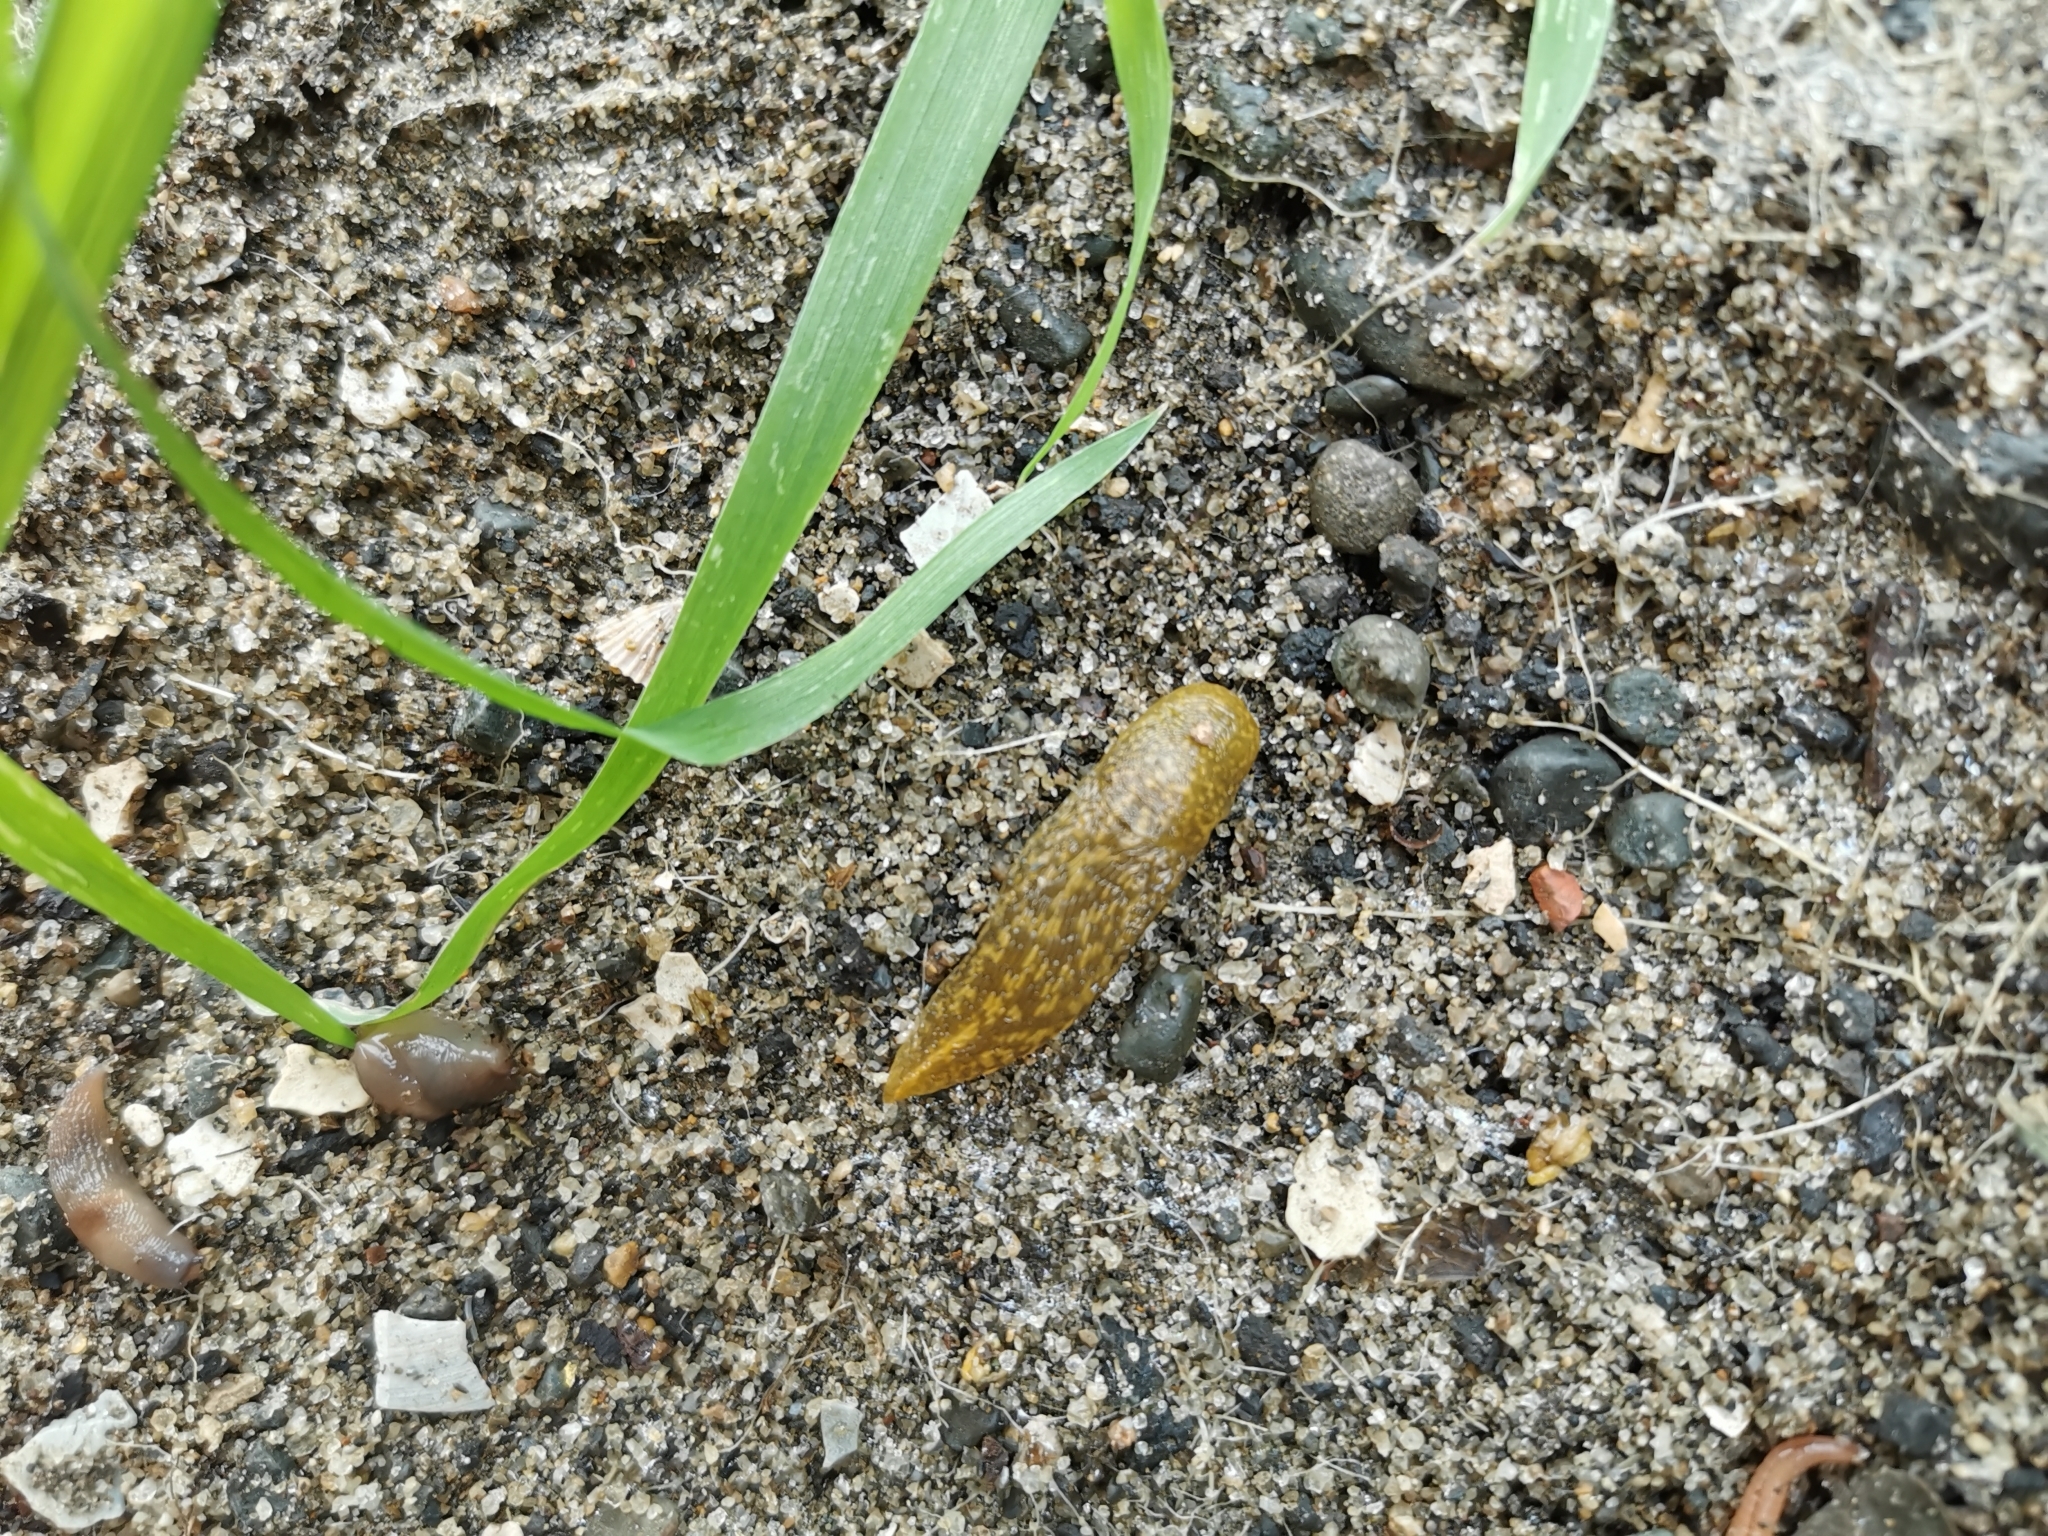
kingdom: Animalia
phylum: Mollusca
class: Gastropoda
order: Stylommatophora
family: Limacidae
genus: Limacus
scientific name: Limacus flavus
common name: Yellow gardenslug
